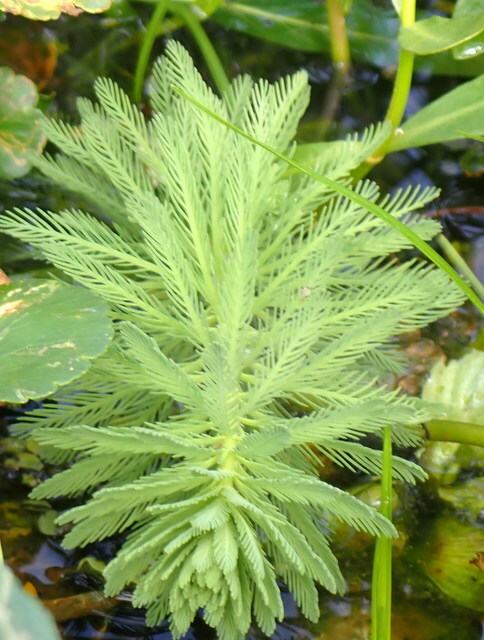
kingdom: Plantae
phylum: Tracheophyta
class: Magnoliopsida
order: Saxifragales
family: Haloragaceae
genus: Myriophyllum
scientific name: Myriophyllum aquaticum
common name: Parrot's feather
